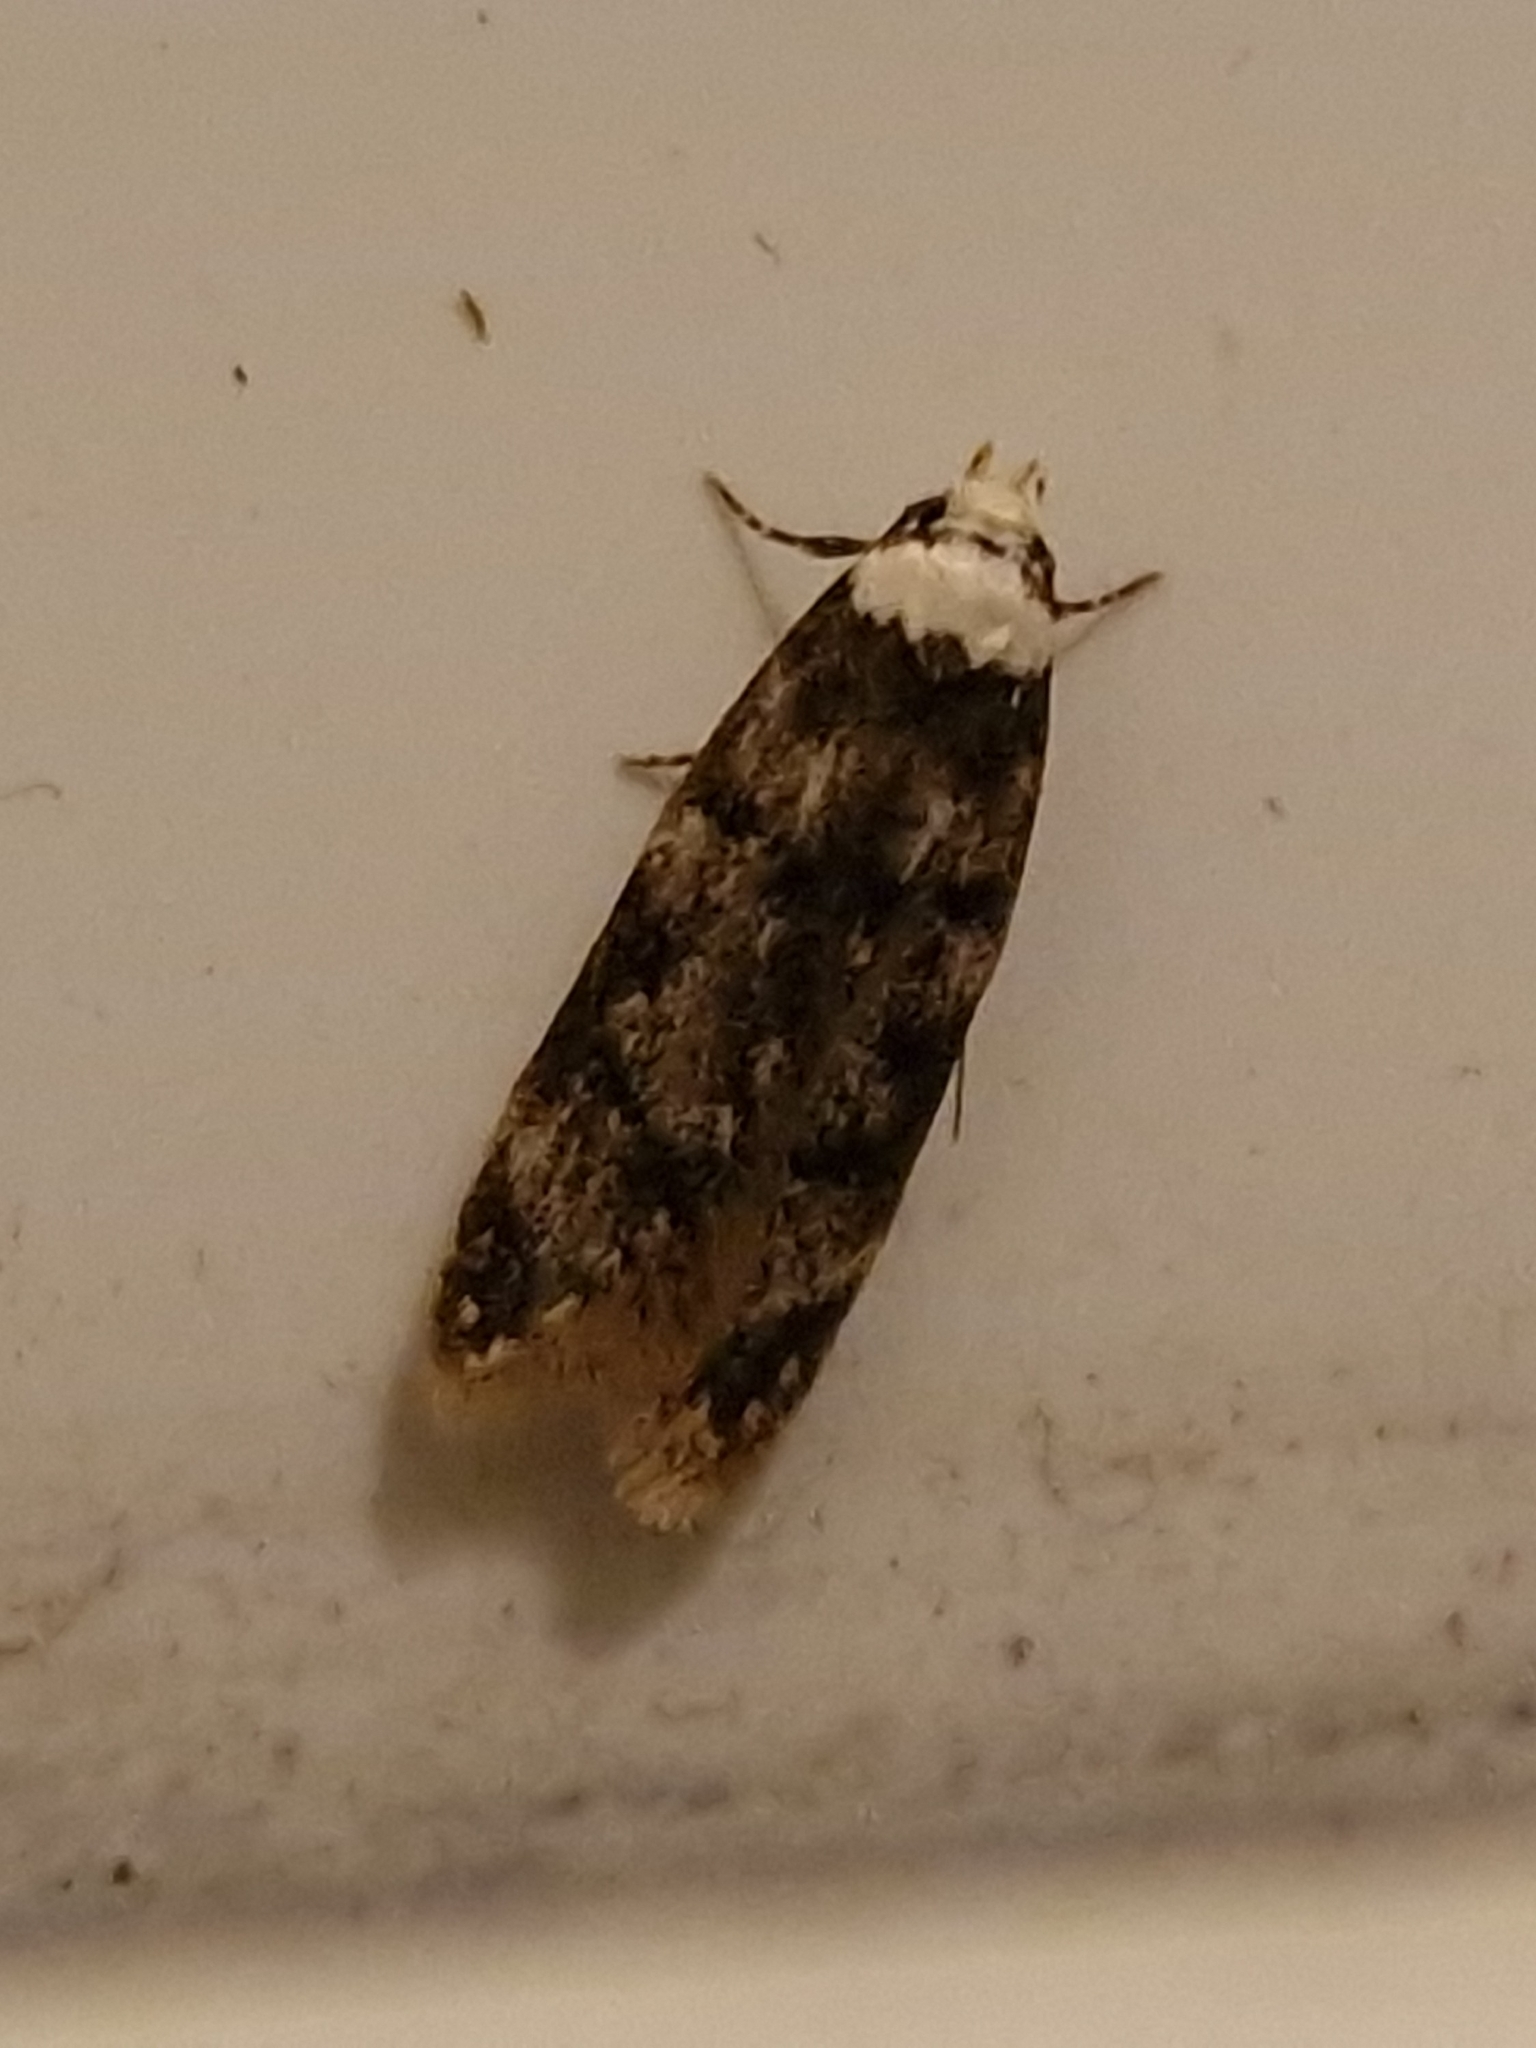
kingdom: Animalia
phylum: Arthropoda
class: Insecta
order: Lepidoptera
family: Oecophoridae
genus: Endrosis
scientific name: Endrosis sarcitrella
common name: White-shouldered house moth
